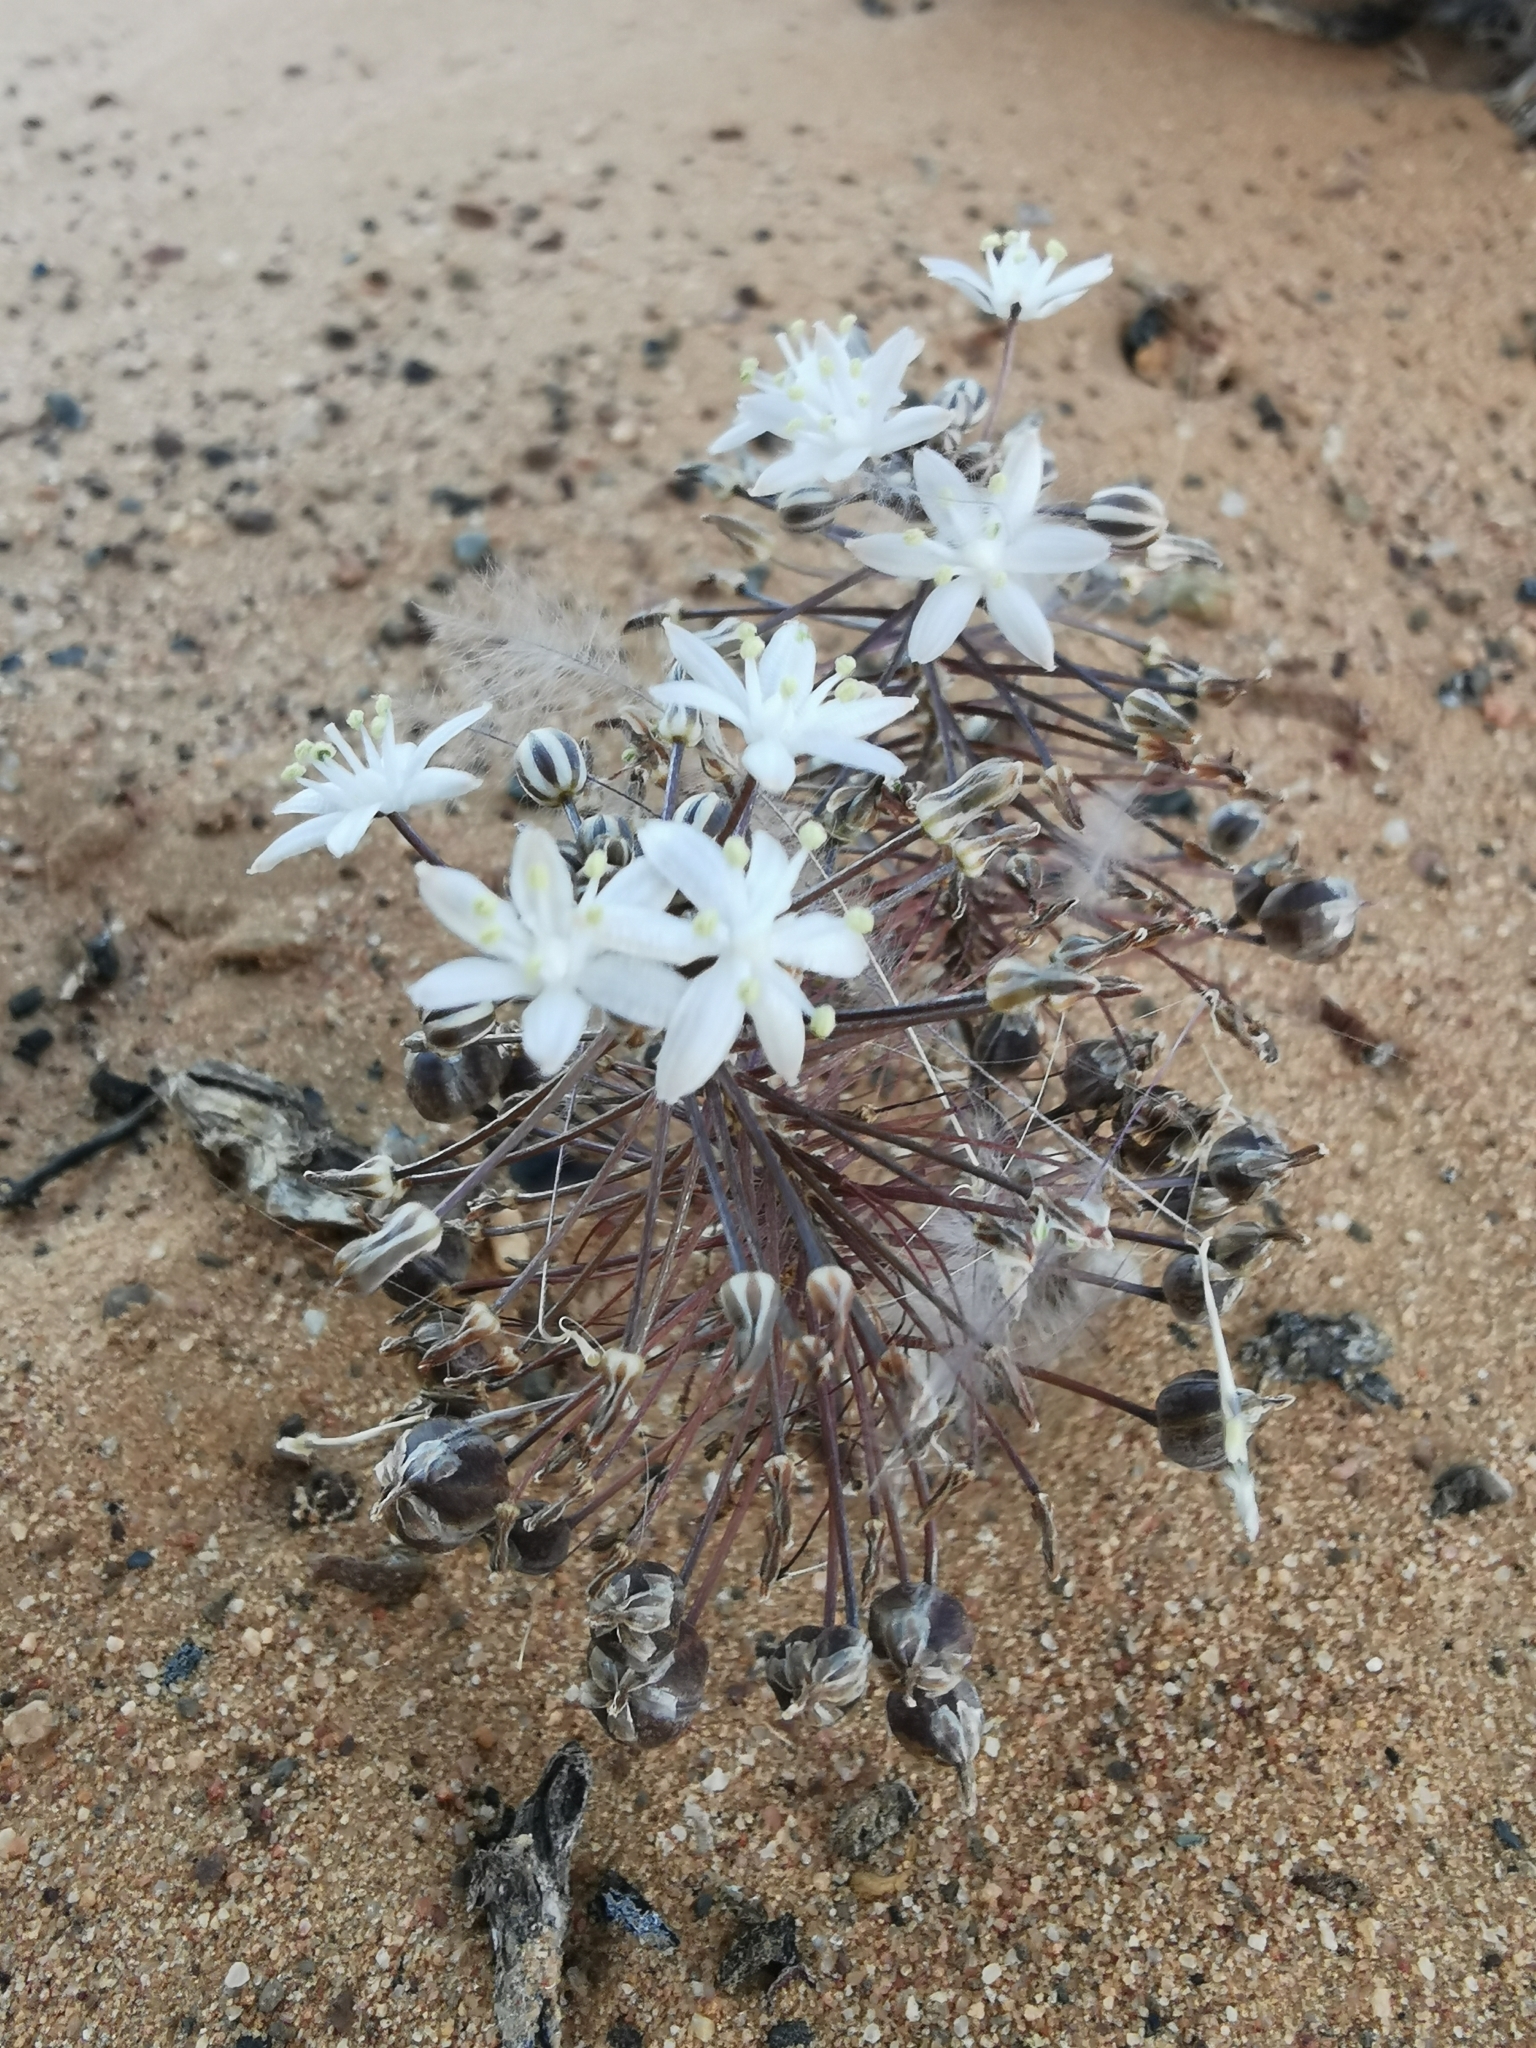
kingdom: Plantae
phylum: Tracheophyta
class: Liliopsida
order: Asparagales
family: Asparagaceae
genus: Fusifilum
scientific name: Fusifilum physodes
